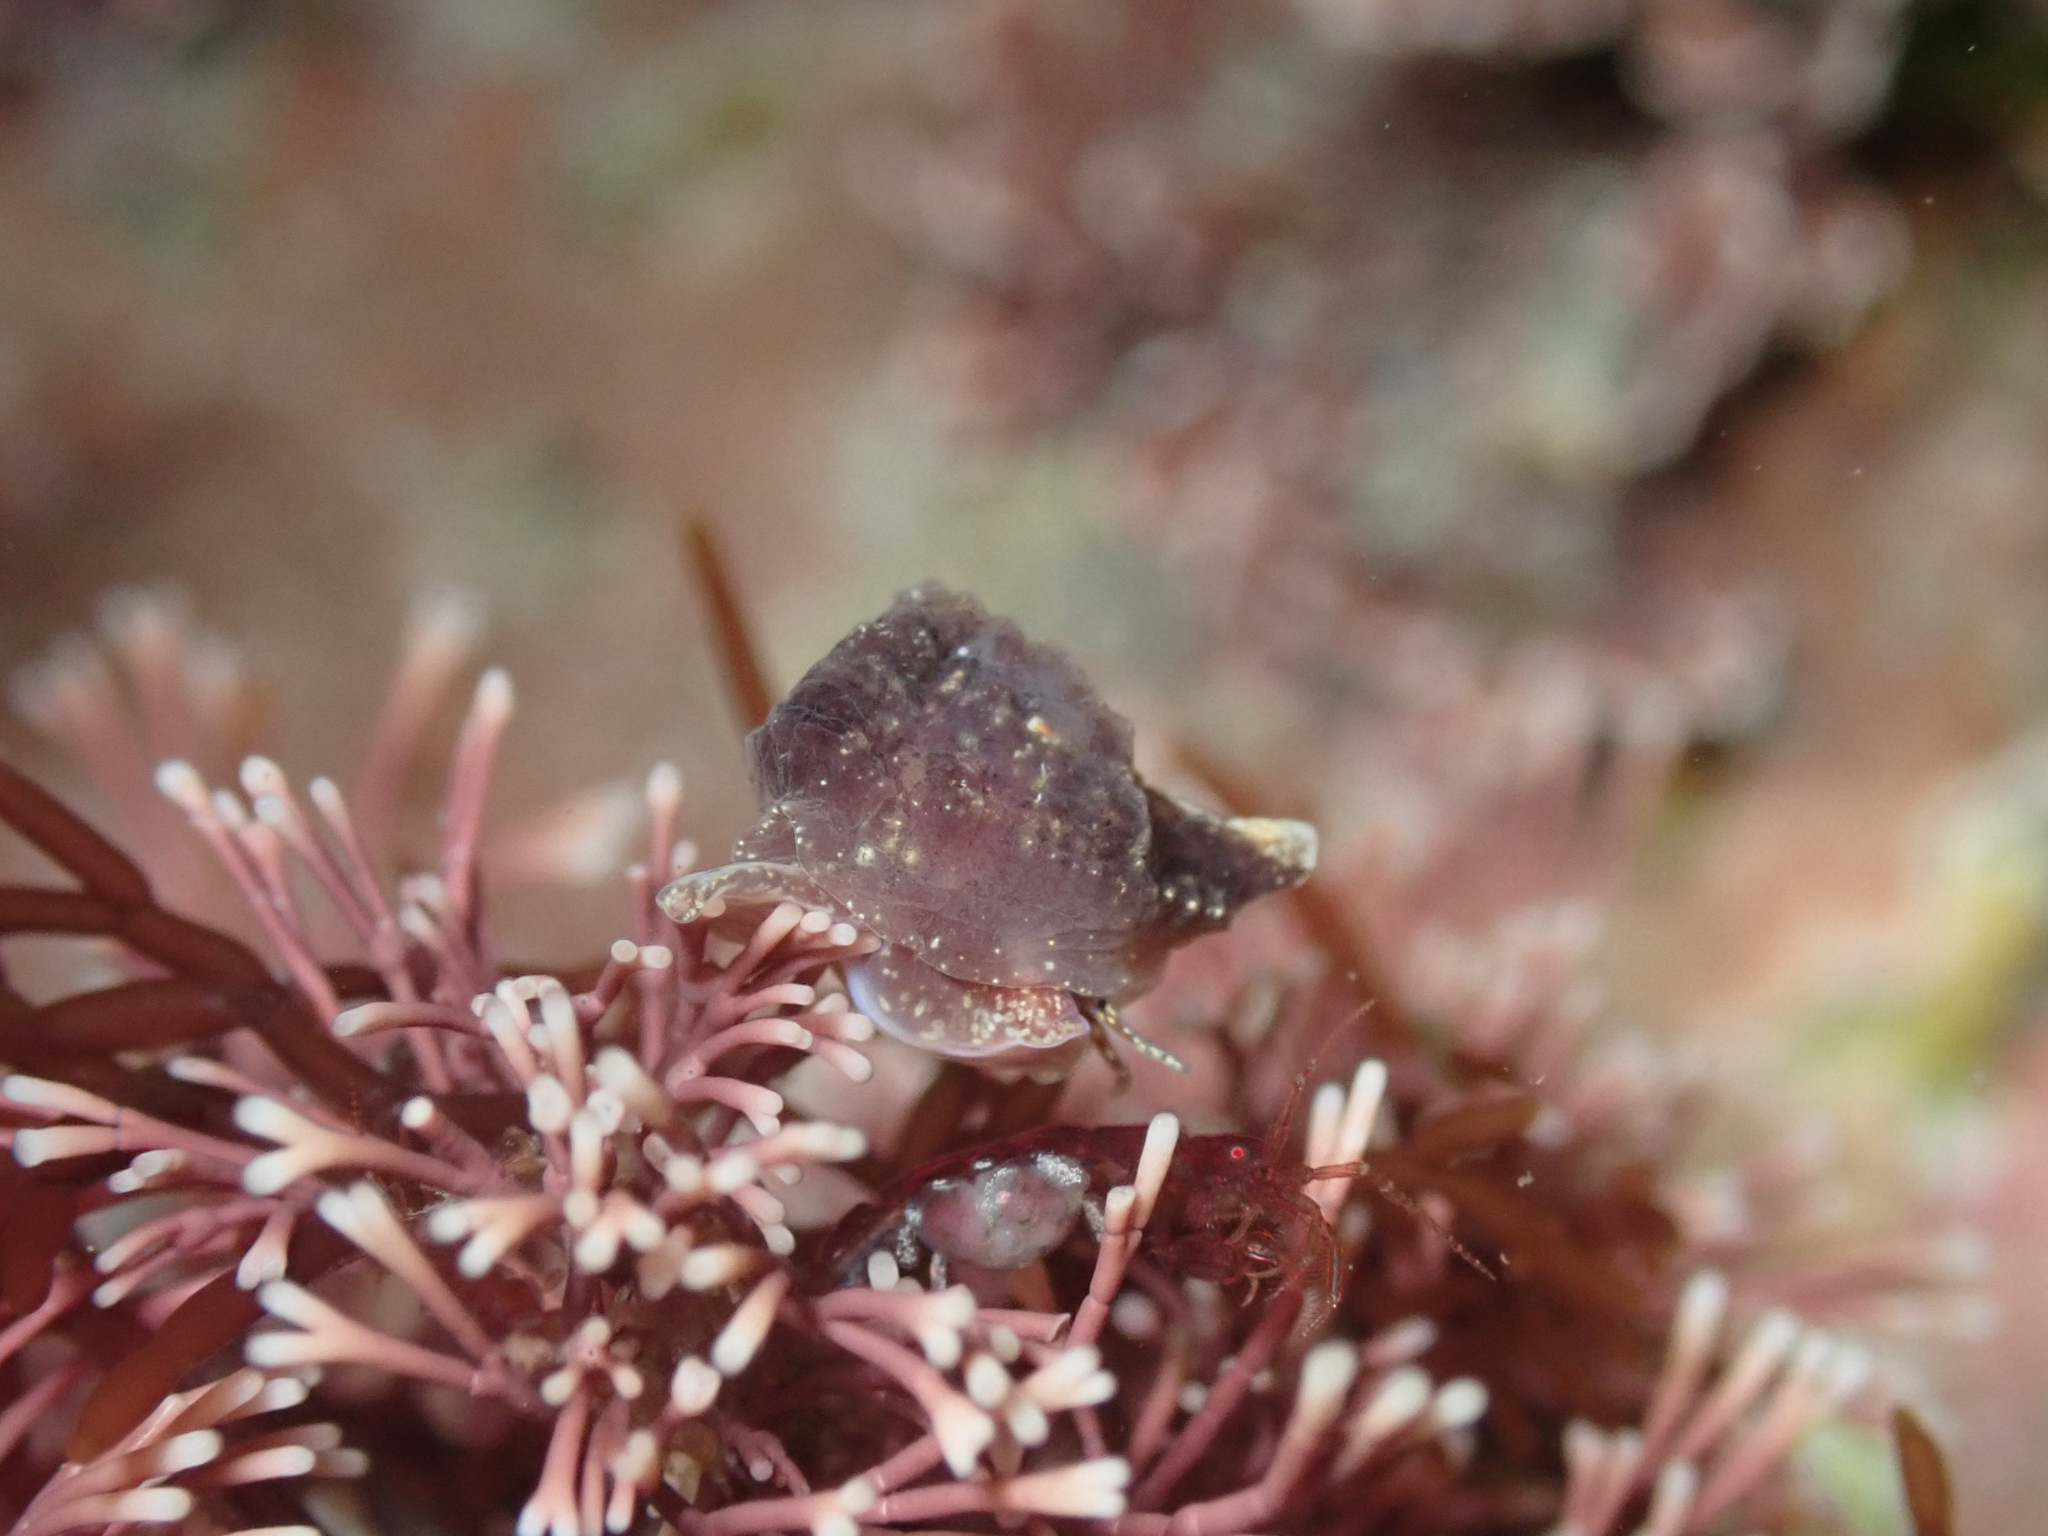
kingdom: Animalia
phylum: Mollusca
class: Gastropoda
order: Littorinimorpha
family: Velutinidae
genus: Hainotis
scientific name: Hainotis sharonae
